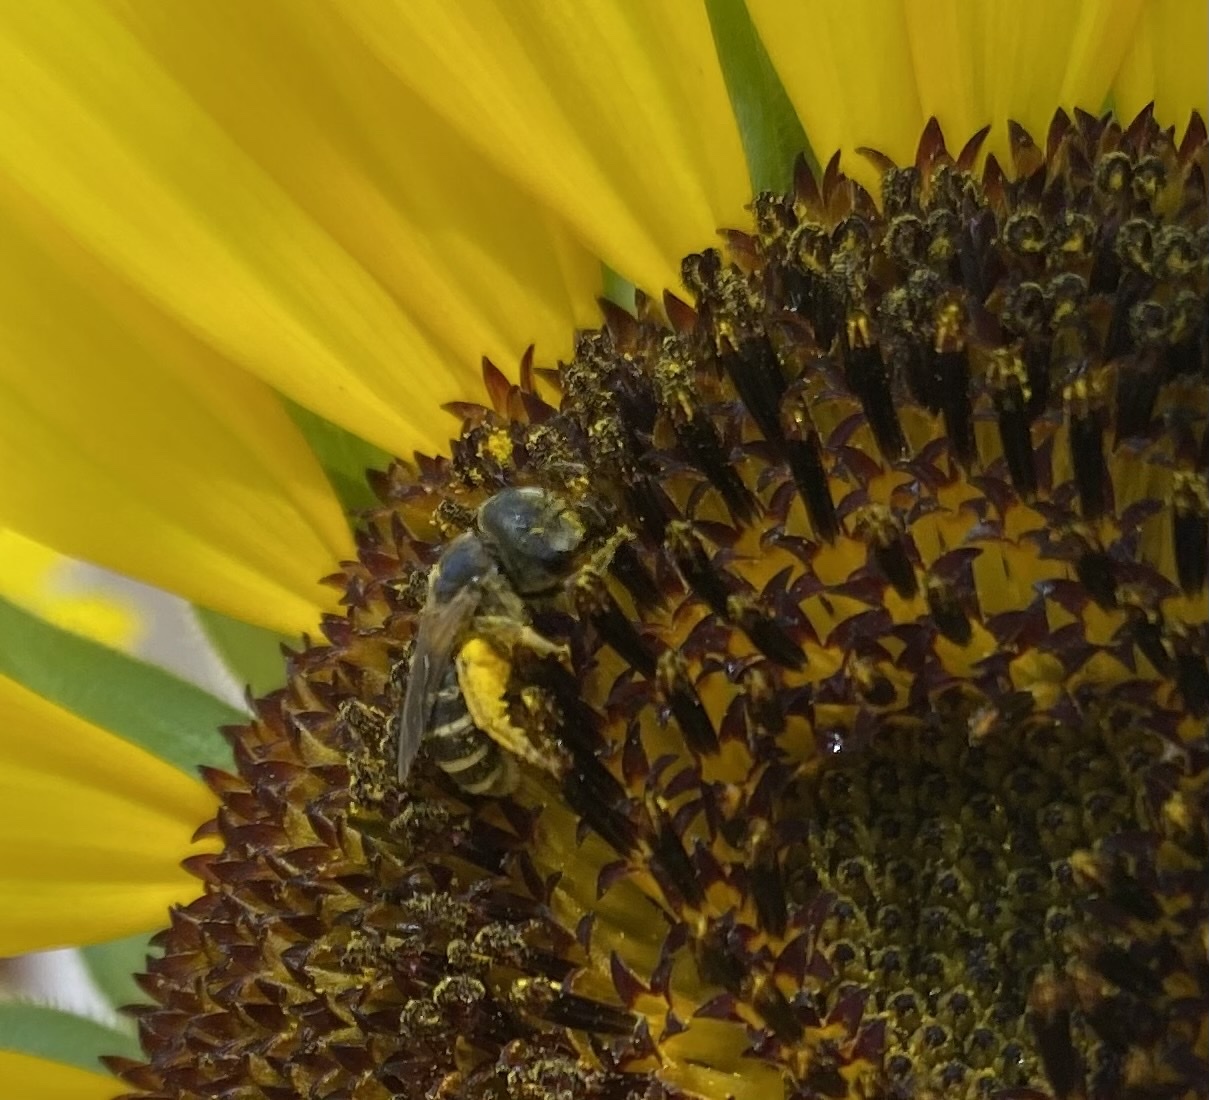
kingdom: Animalia
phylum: Arthropoda
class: Insecta
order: Hymenoptera
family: Halictidae
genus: Halictus
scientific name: Halictus ligatus
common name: Ligated furrow bee
